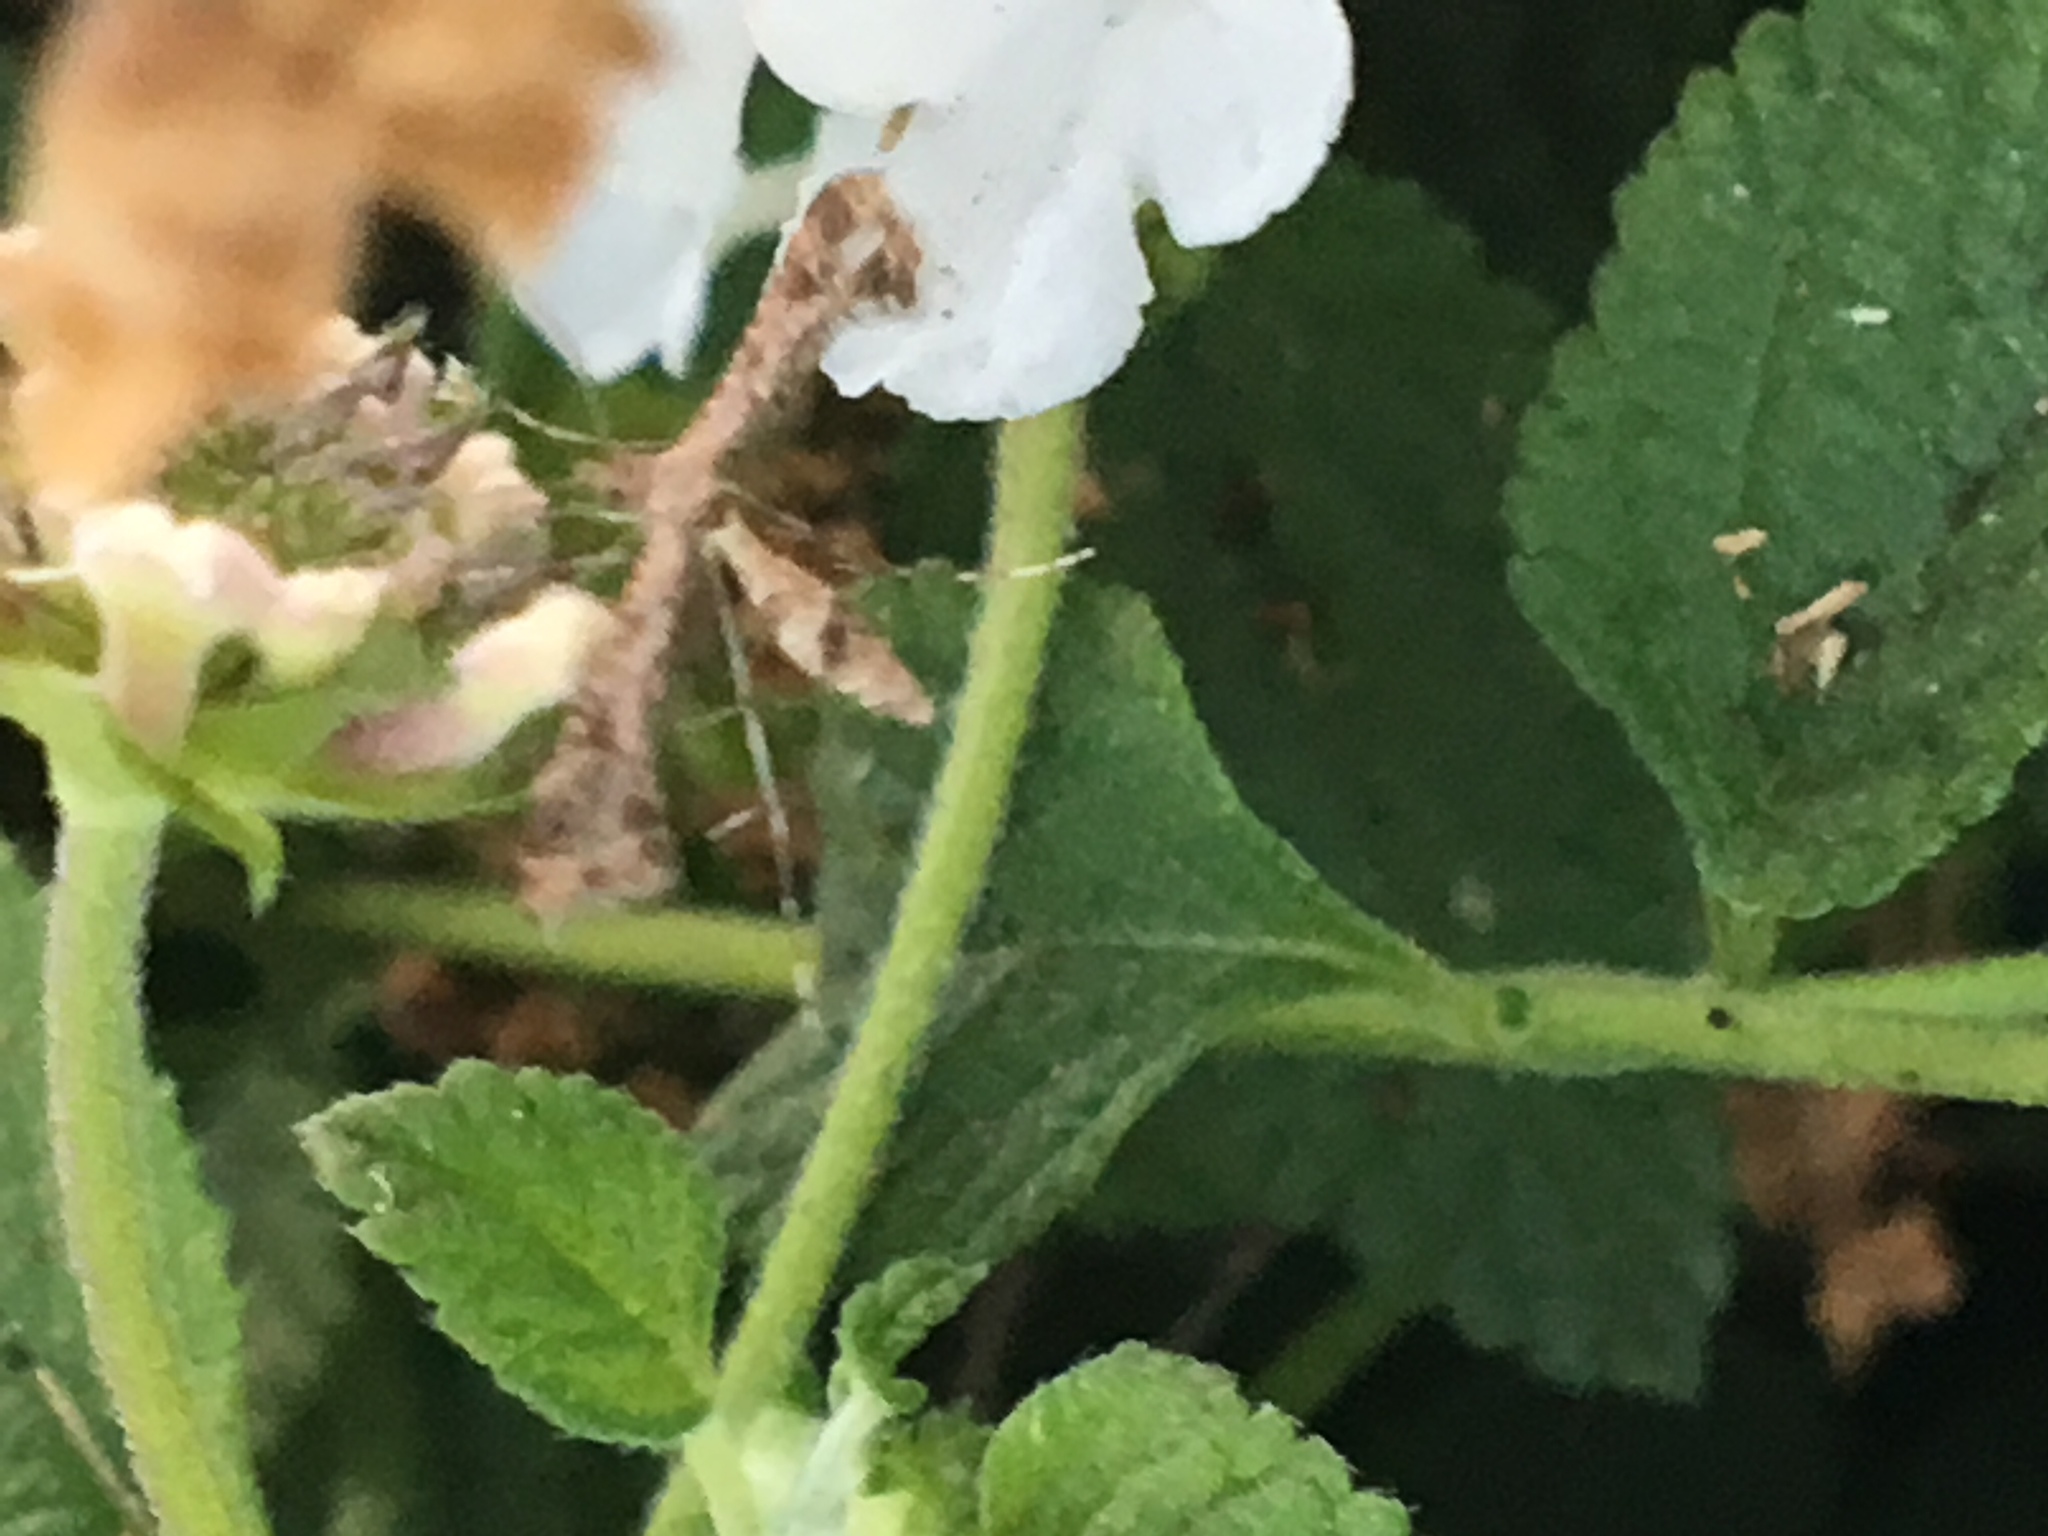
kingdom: Animalia
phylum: Arthropoda
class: Insecta
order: Lepidoptera
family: Pterophoridae
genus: Lantanophaga
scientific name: Lantanophaga pusillidactylus
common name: Moth
